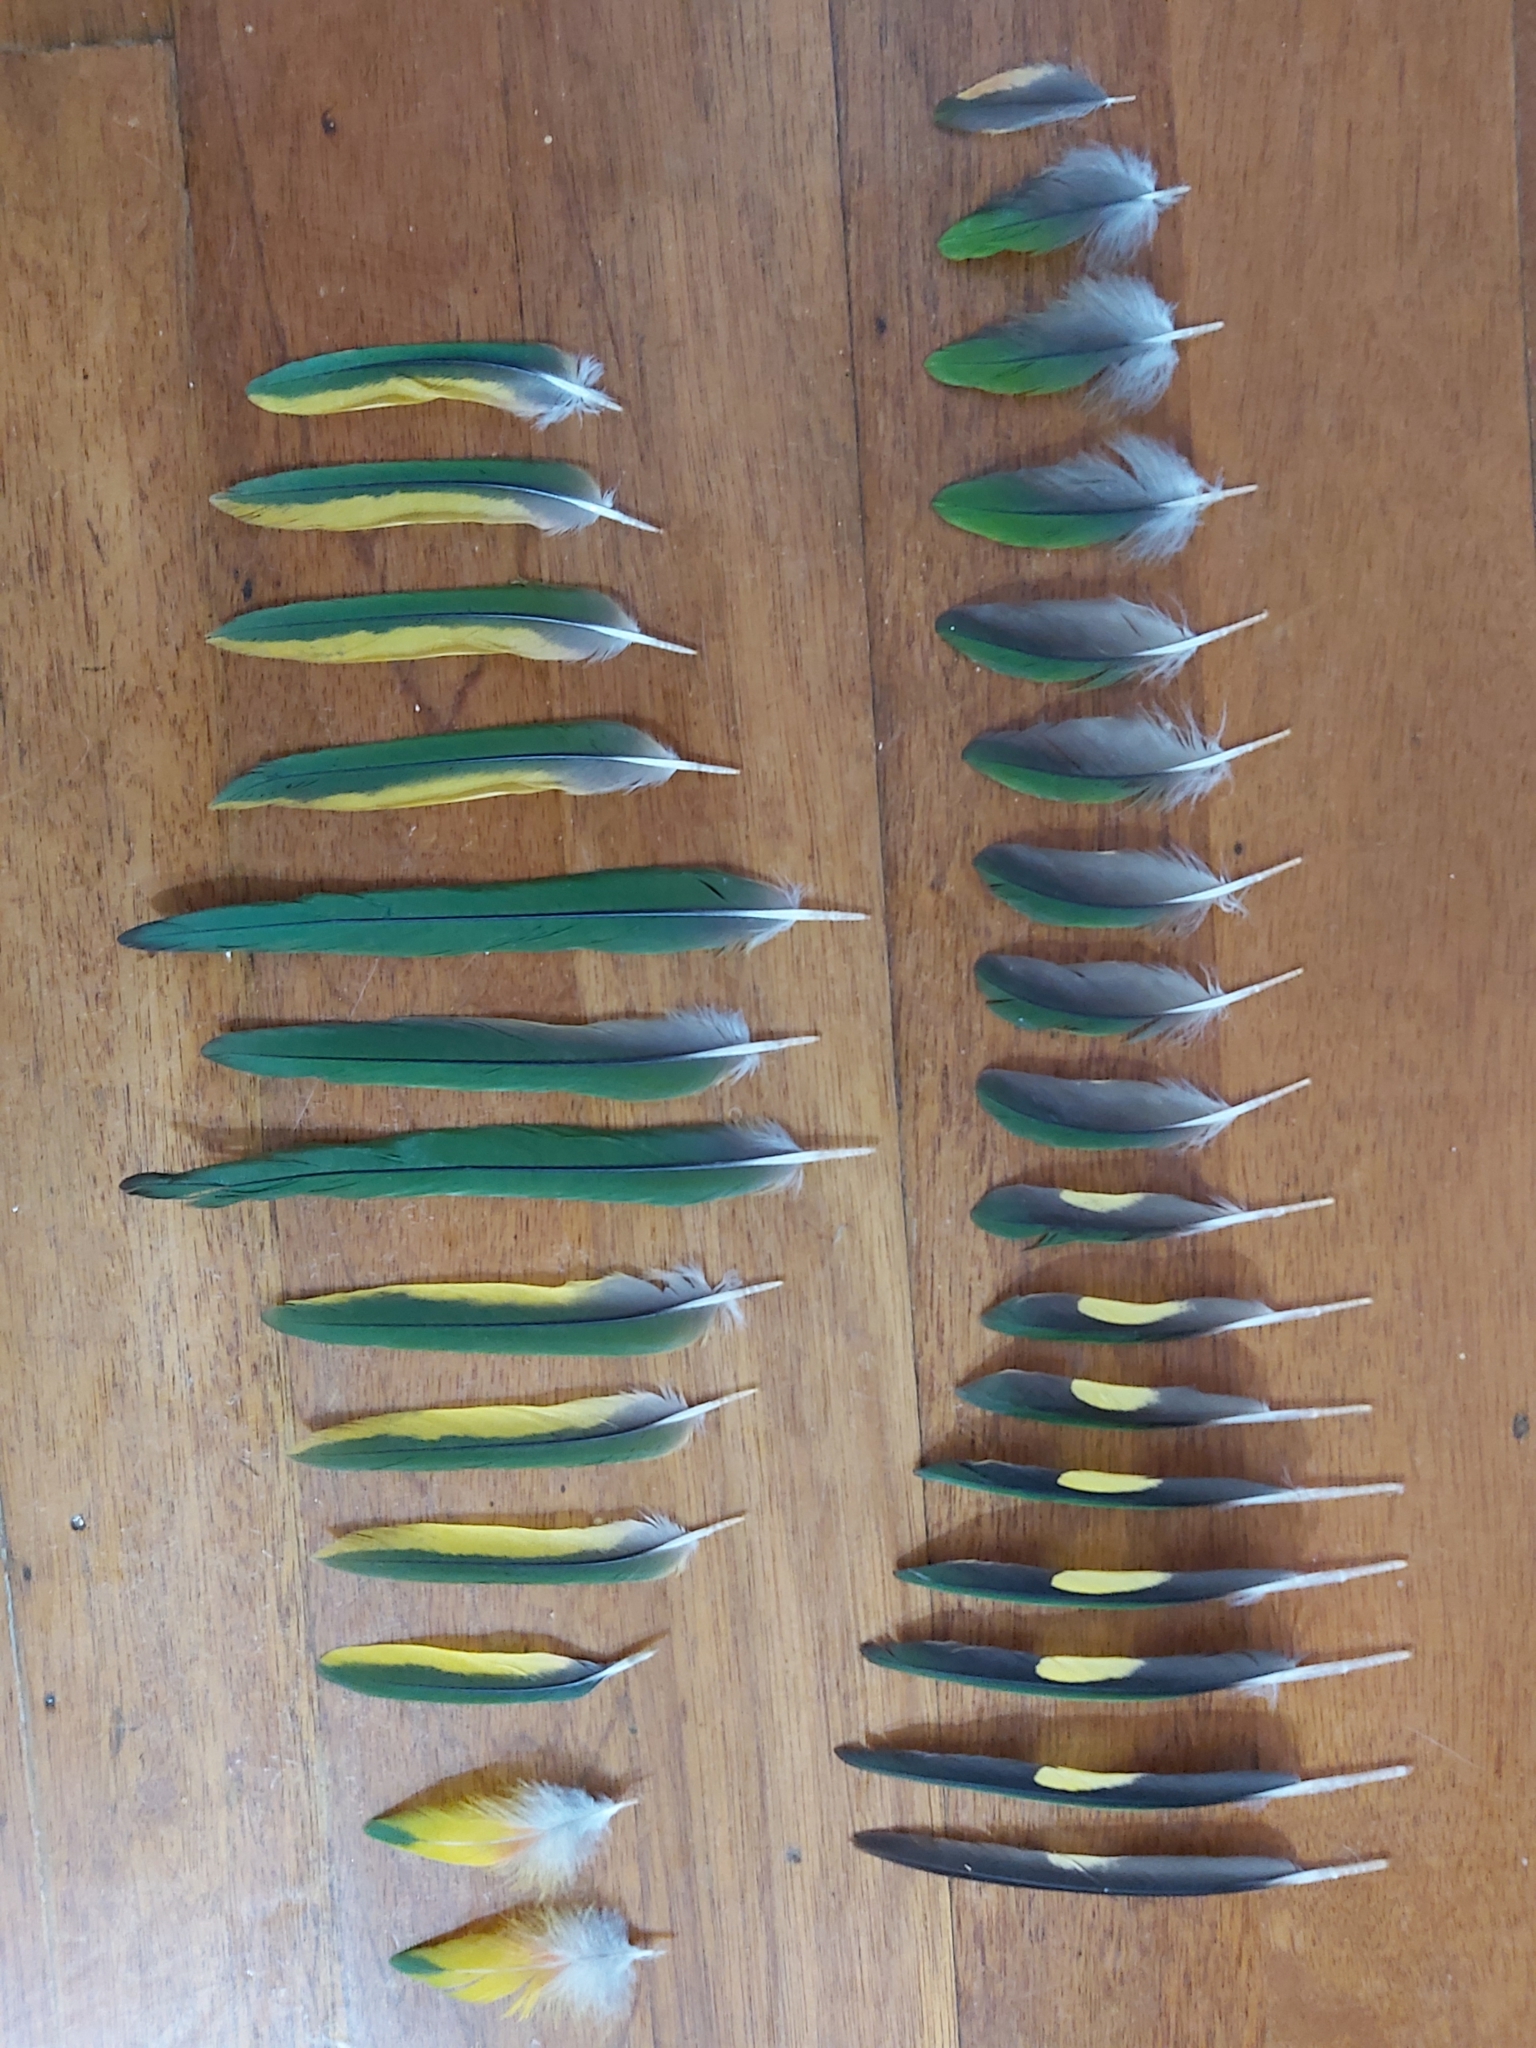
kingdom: Animalia
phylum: Chordata
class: Aves
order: Psittaciformes
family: Psittacidae
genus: Trichoglossus
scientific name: Trichoglossus haematodus
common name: Coconut lorikeet
